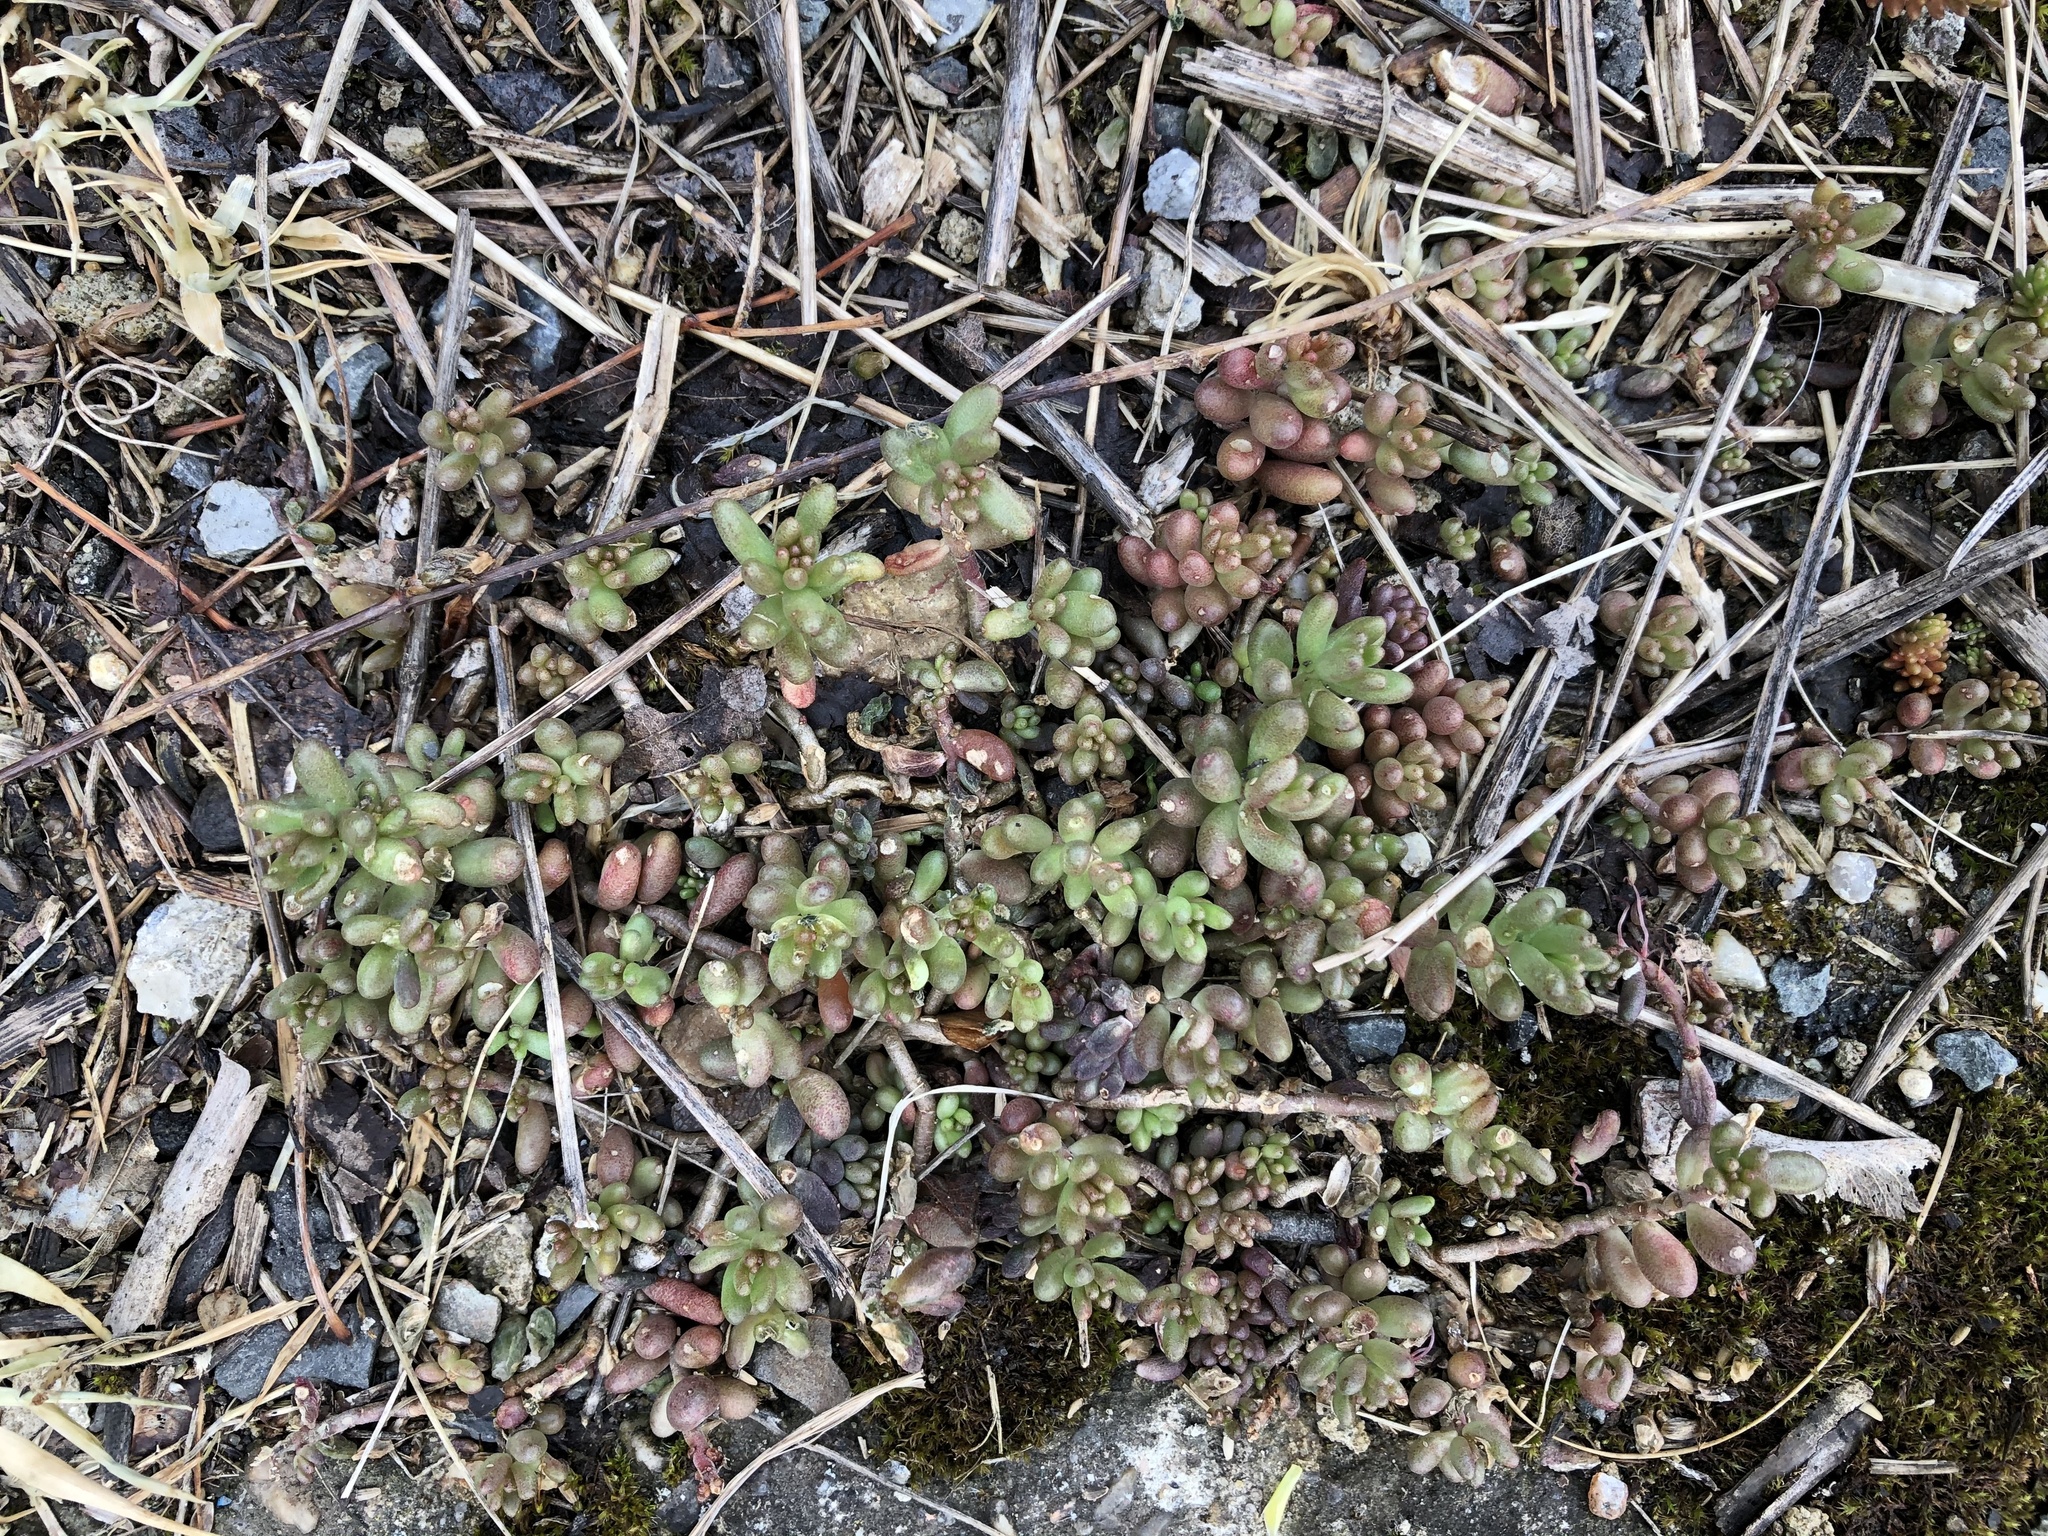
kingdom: Plantae
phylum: Tracheophyta
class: Magnoliopsida
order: Saxifragales
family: Crassulaceae
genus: Sedum
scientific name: Sedum album
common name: White stonecrop
